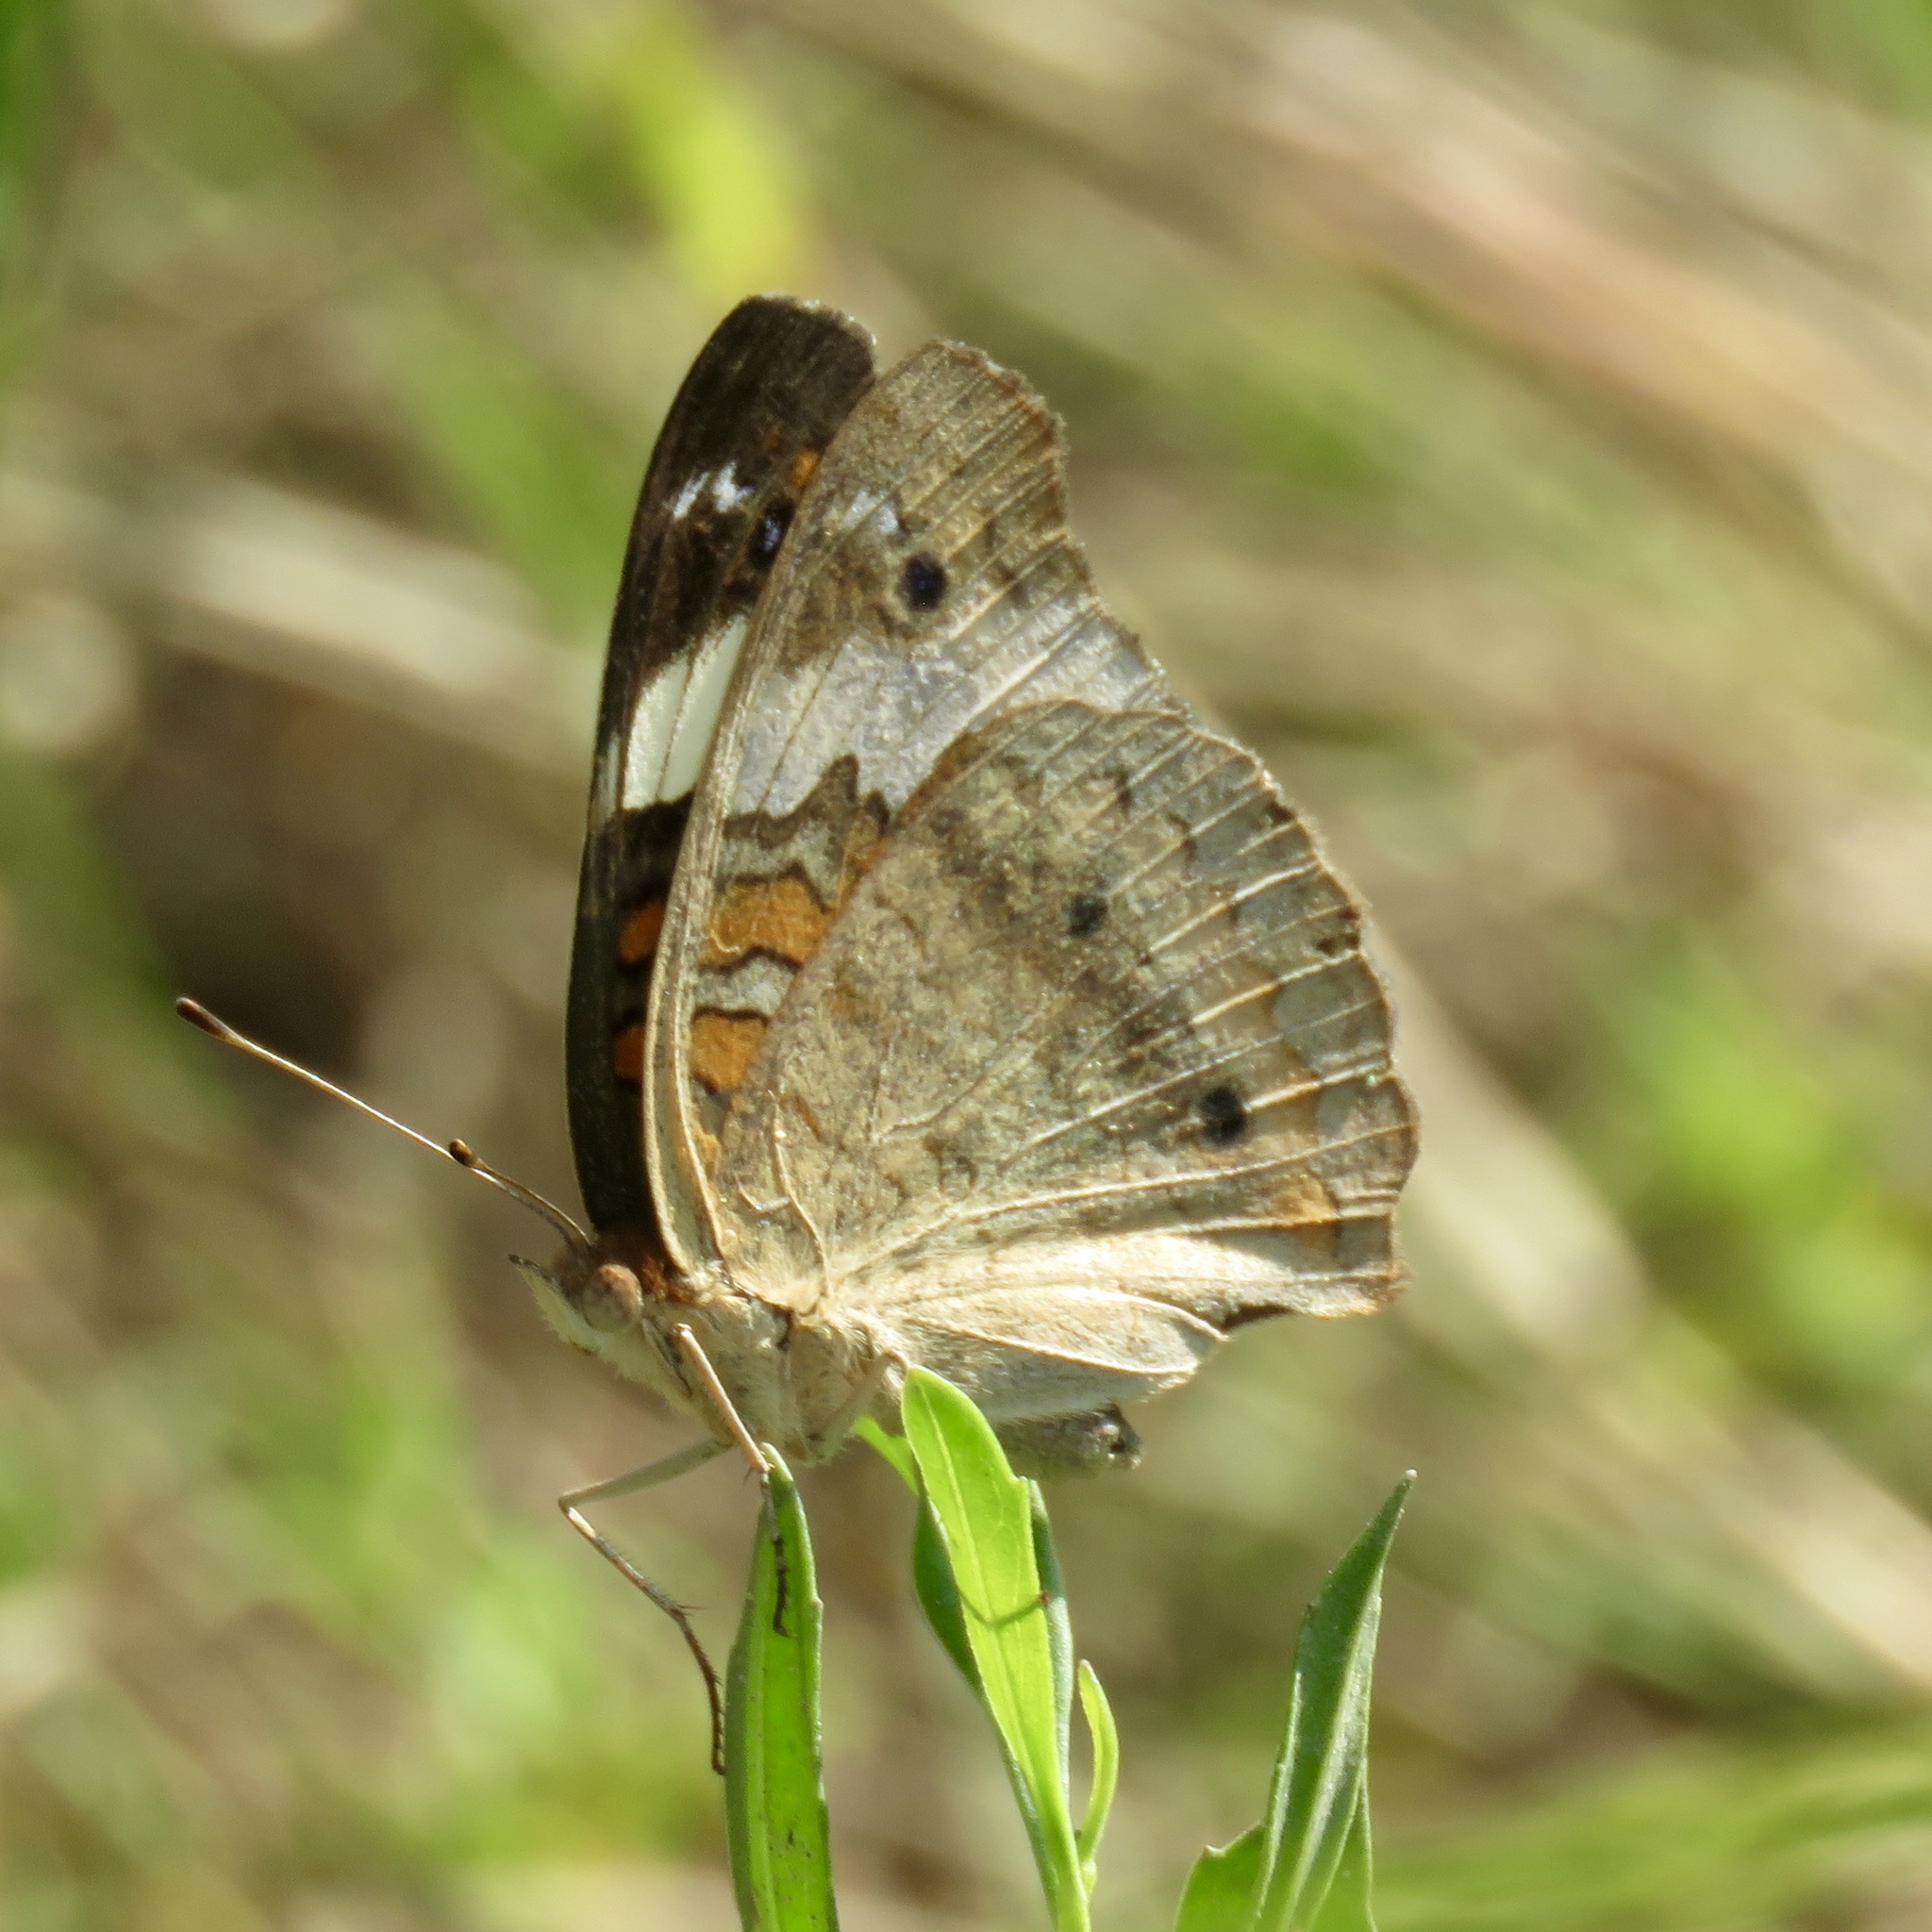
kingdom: Animalia
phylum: Arthropoda
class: Insecta
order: Lepidoptera
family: Nymphalidae
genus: Junonia
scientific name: Junonia coenia
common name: Common buckeye
